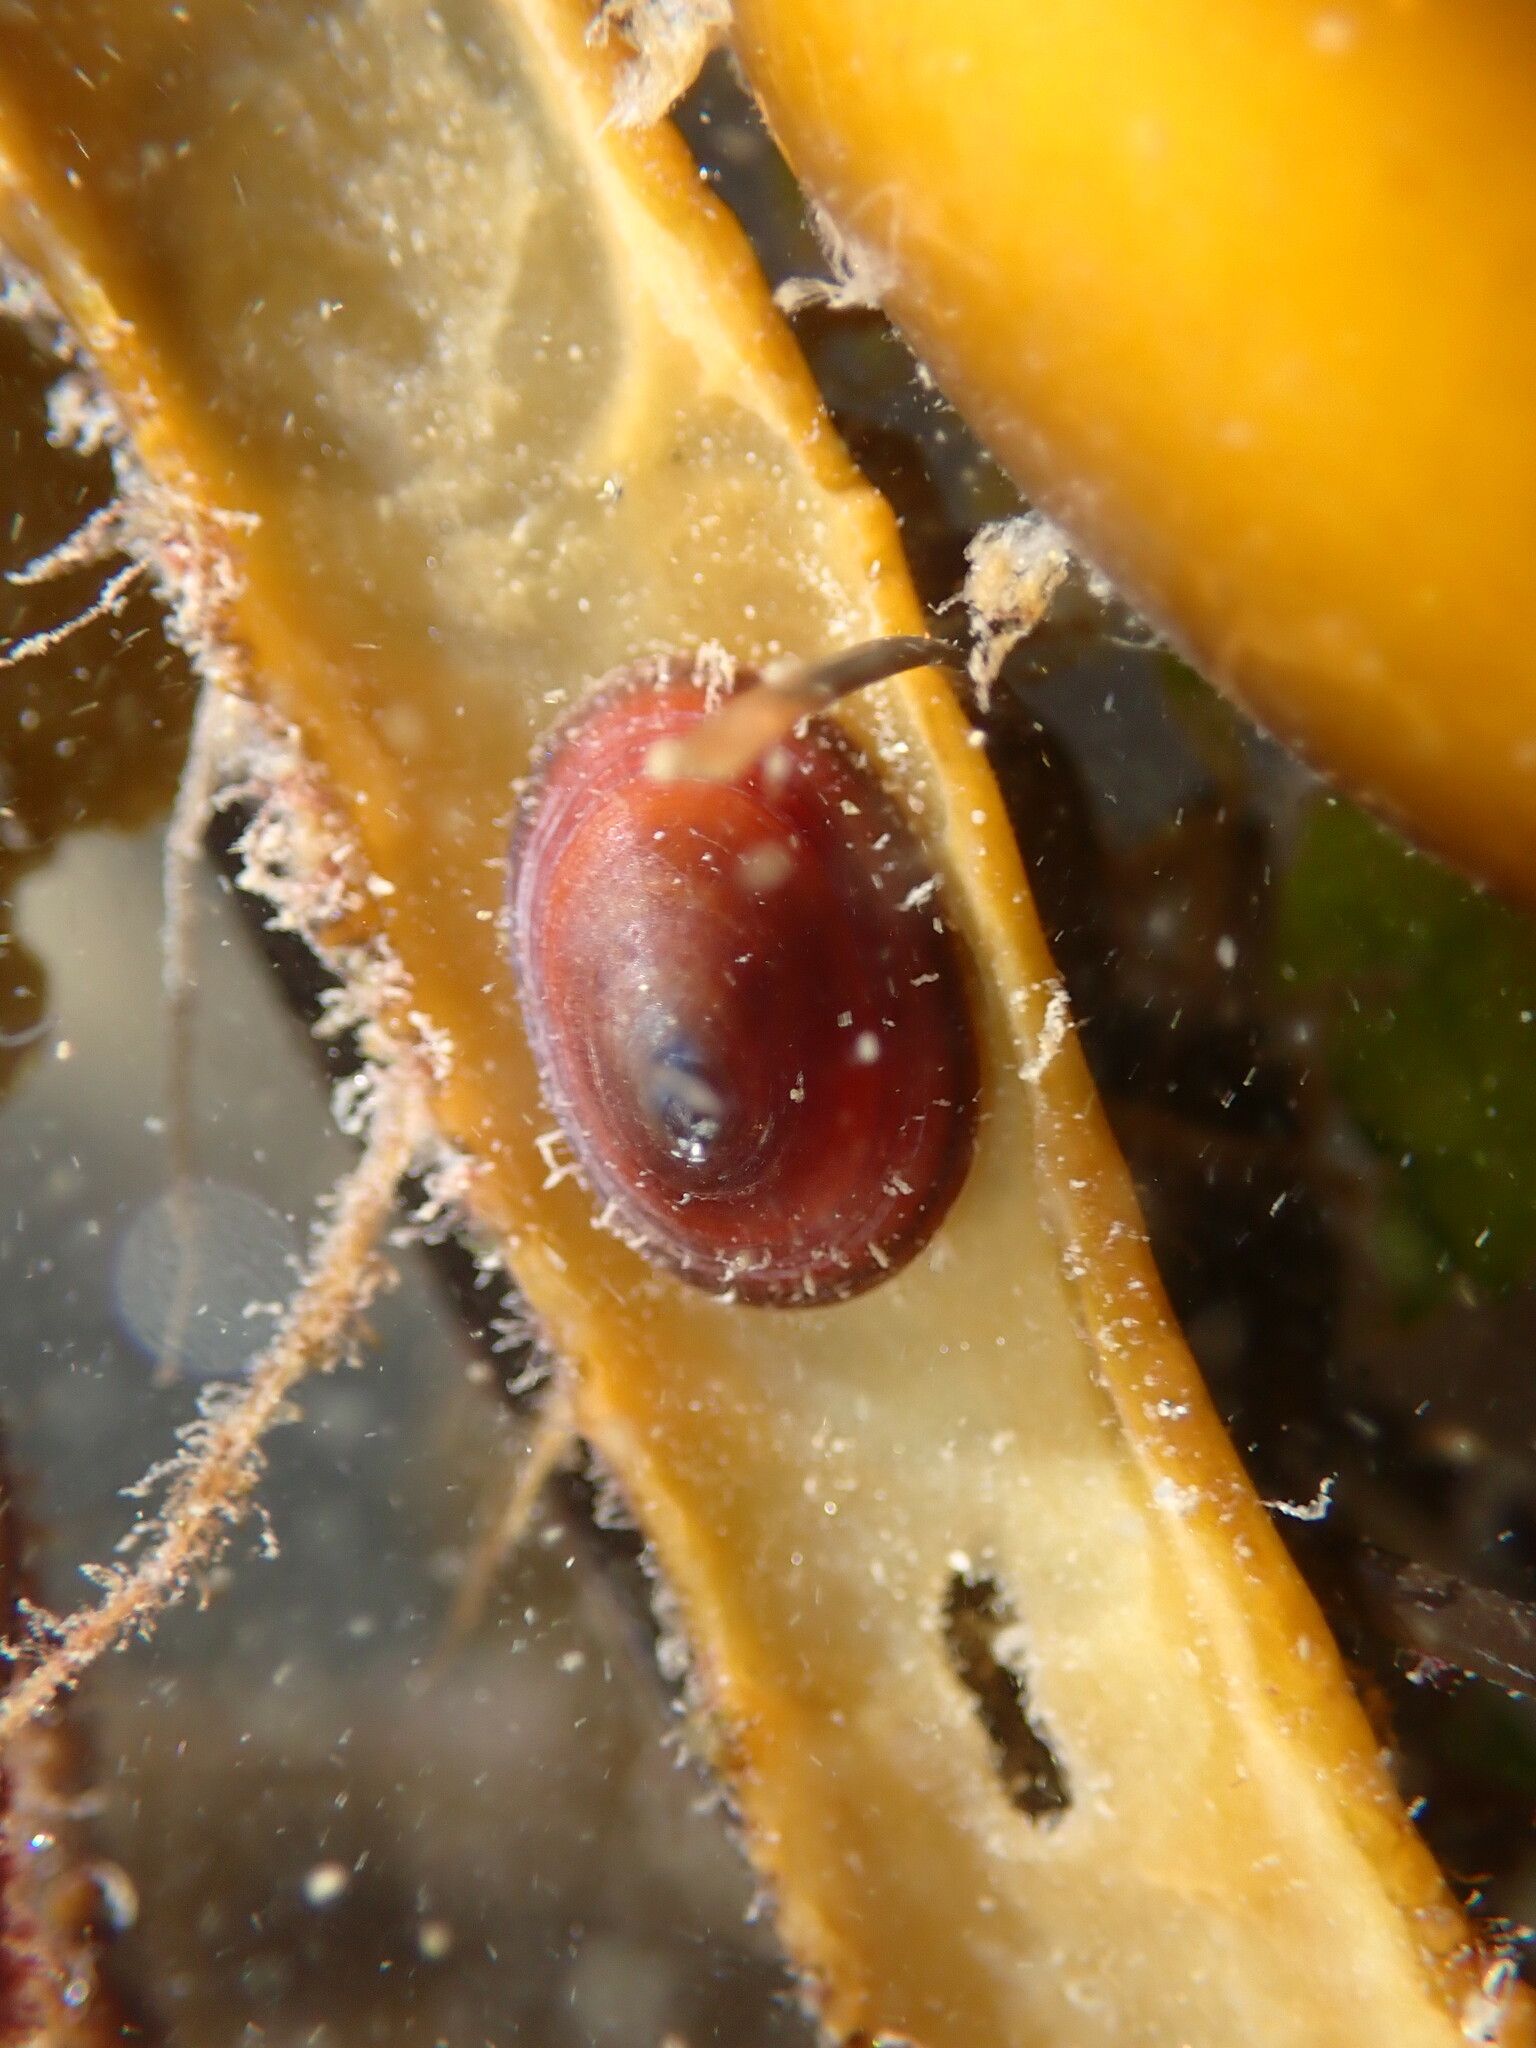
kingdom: Animalia
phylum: Mollusca
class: Gastropoda
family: Lottiidae
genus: Discurria
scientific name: Discurria insessa
